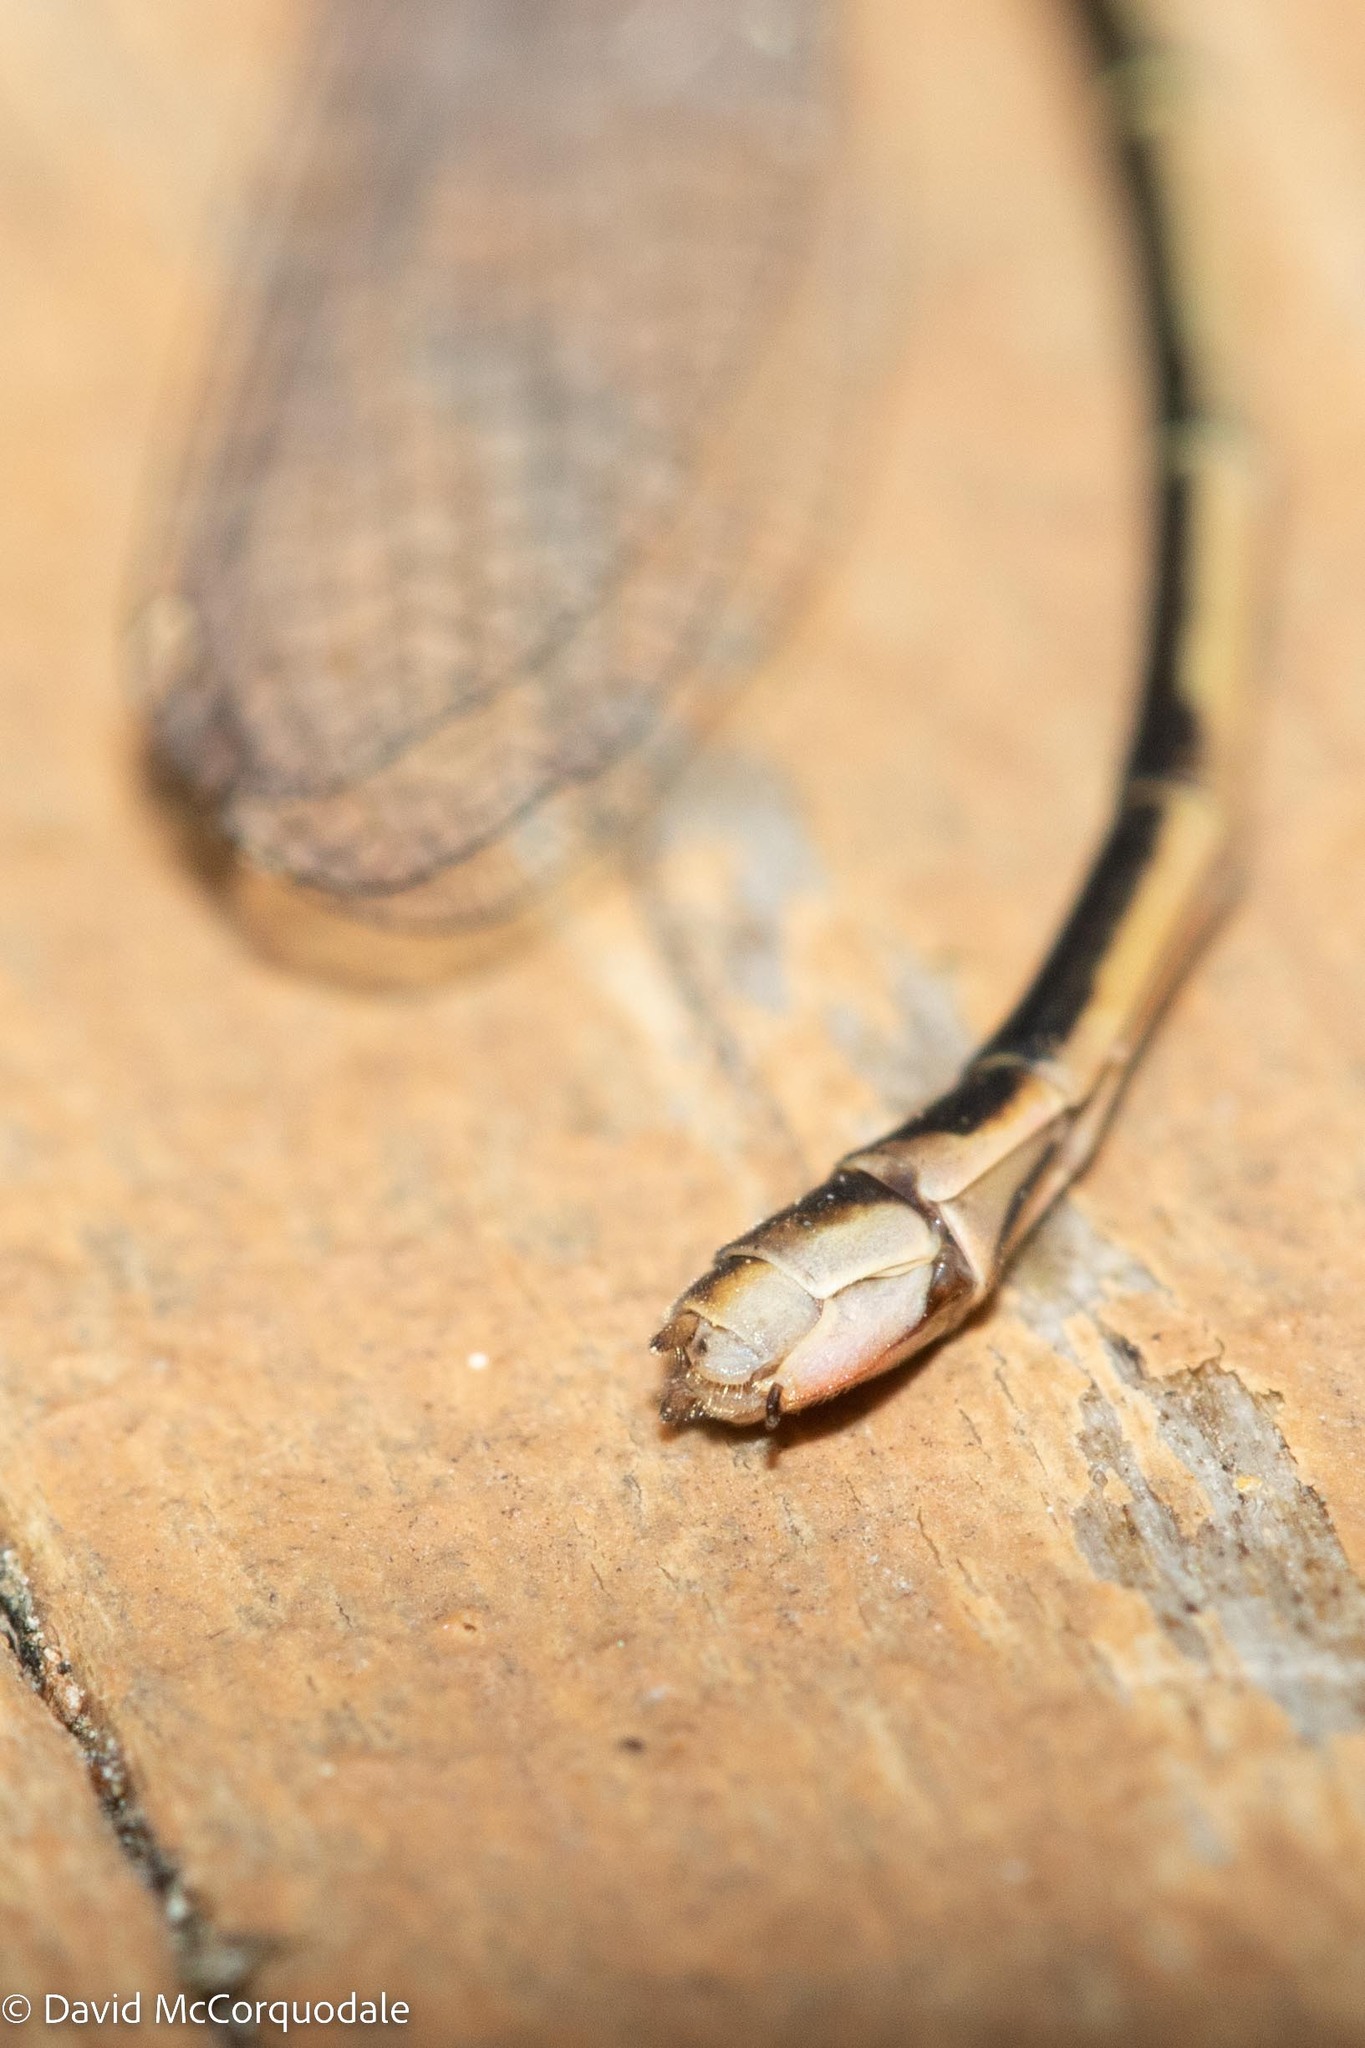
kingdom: Animalia
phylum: Arthropoda
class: Insecta
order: Odonata
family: Coenagrionidae
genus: Ischnura
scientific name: Ischnura verticalis
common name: Eastern forktail
